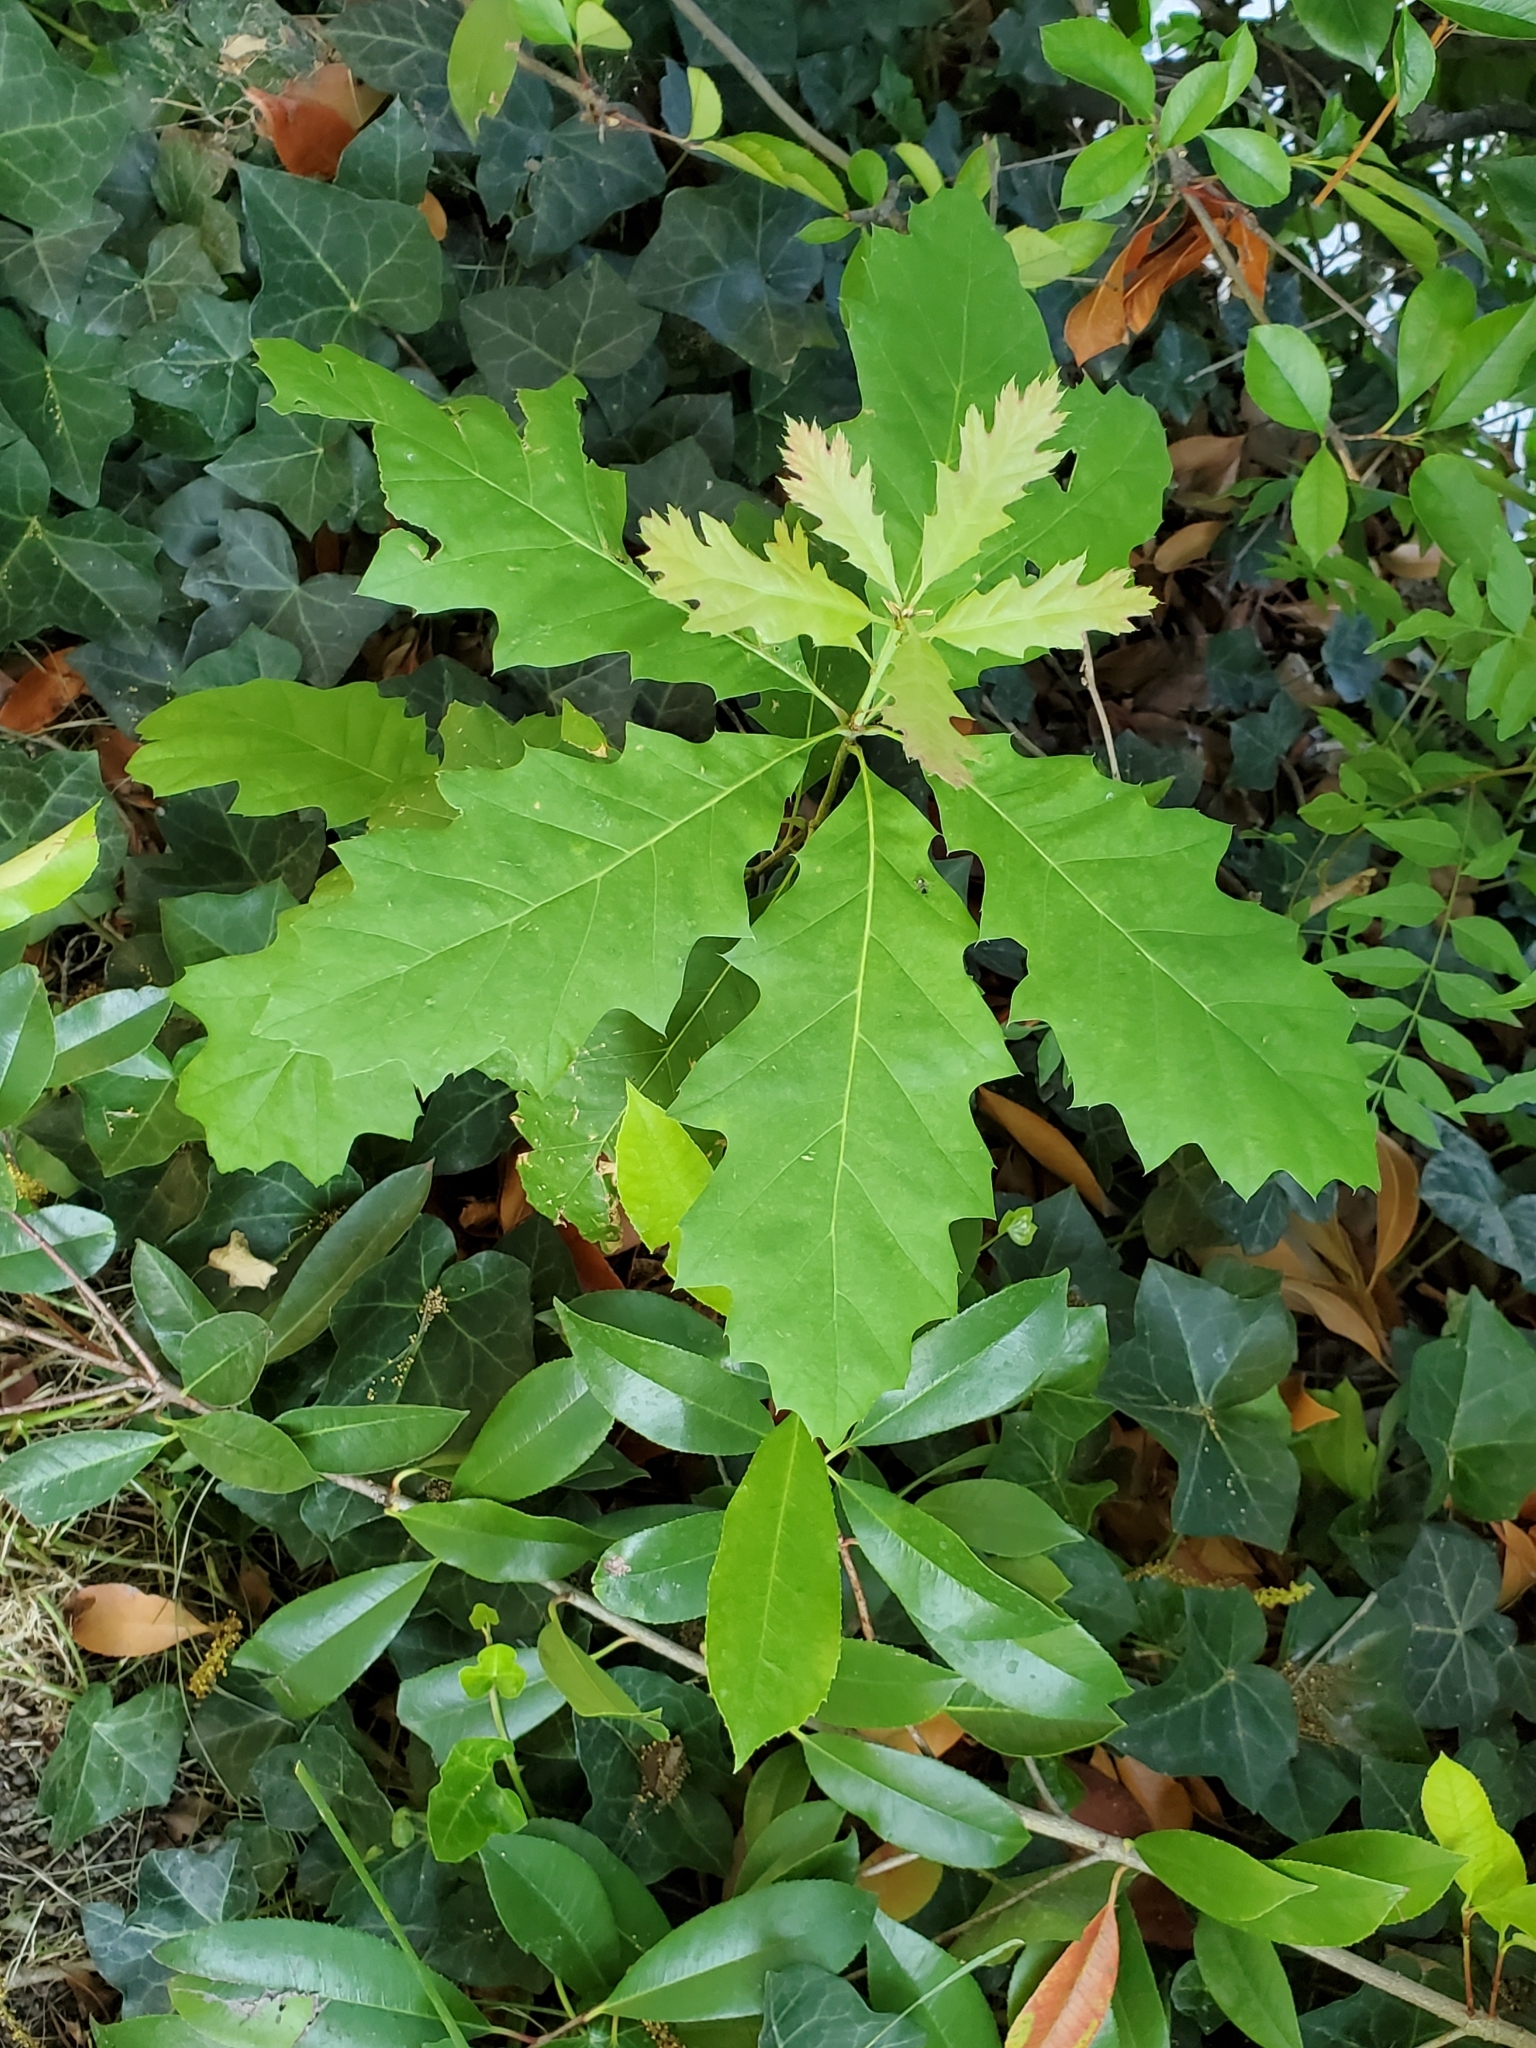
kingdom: Plantae
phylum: Tracheophyta
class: Magnoliopsida
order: Fagales
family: Fagaceae
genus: Quercus
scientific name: Quercus rubra
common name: Red oak
